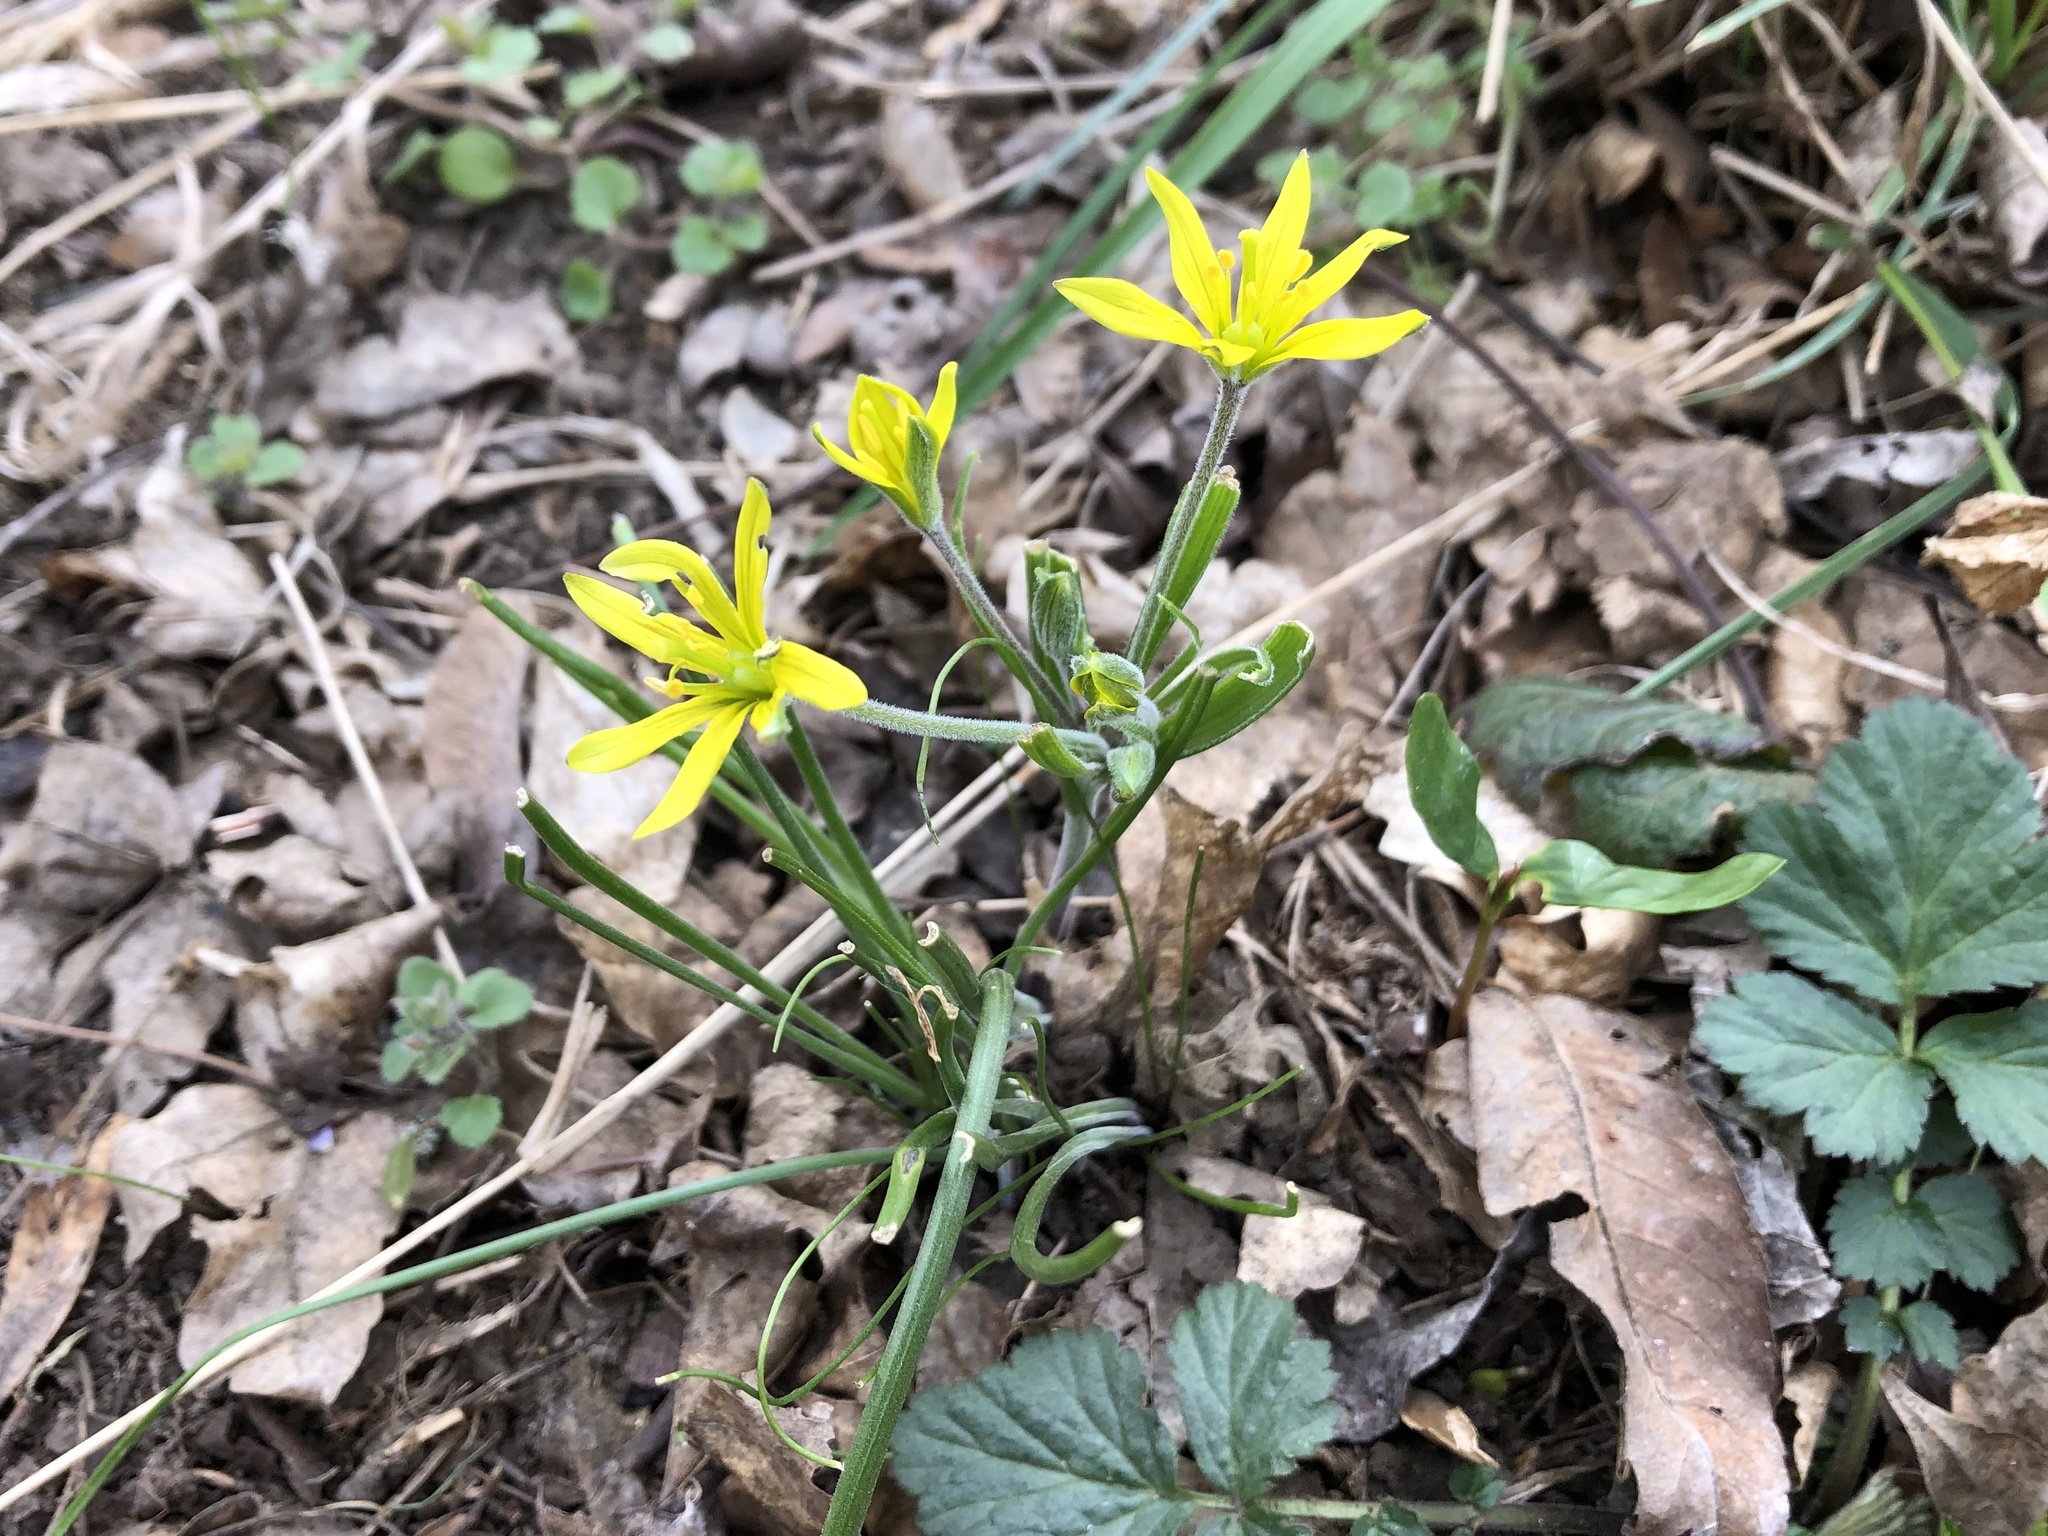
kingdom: Plantae
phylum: Tracheophyta
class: Liliopsida
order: Liliales
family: Liliaceae
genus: Gagea
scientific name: Gagea villosa
